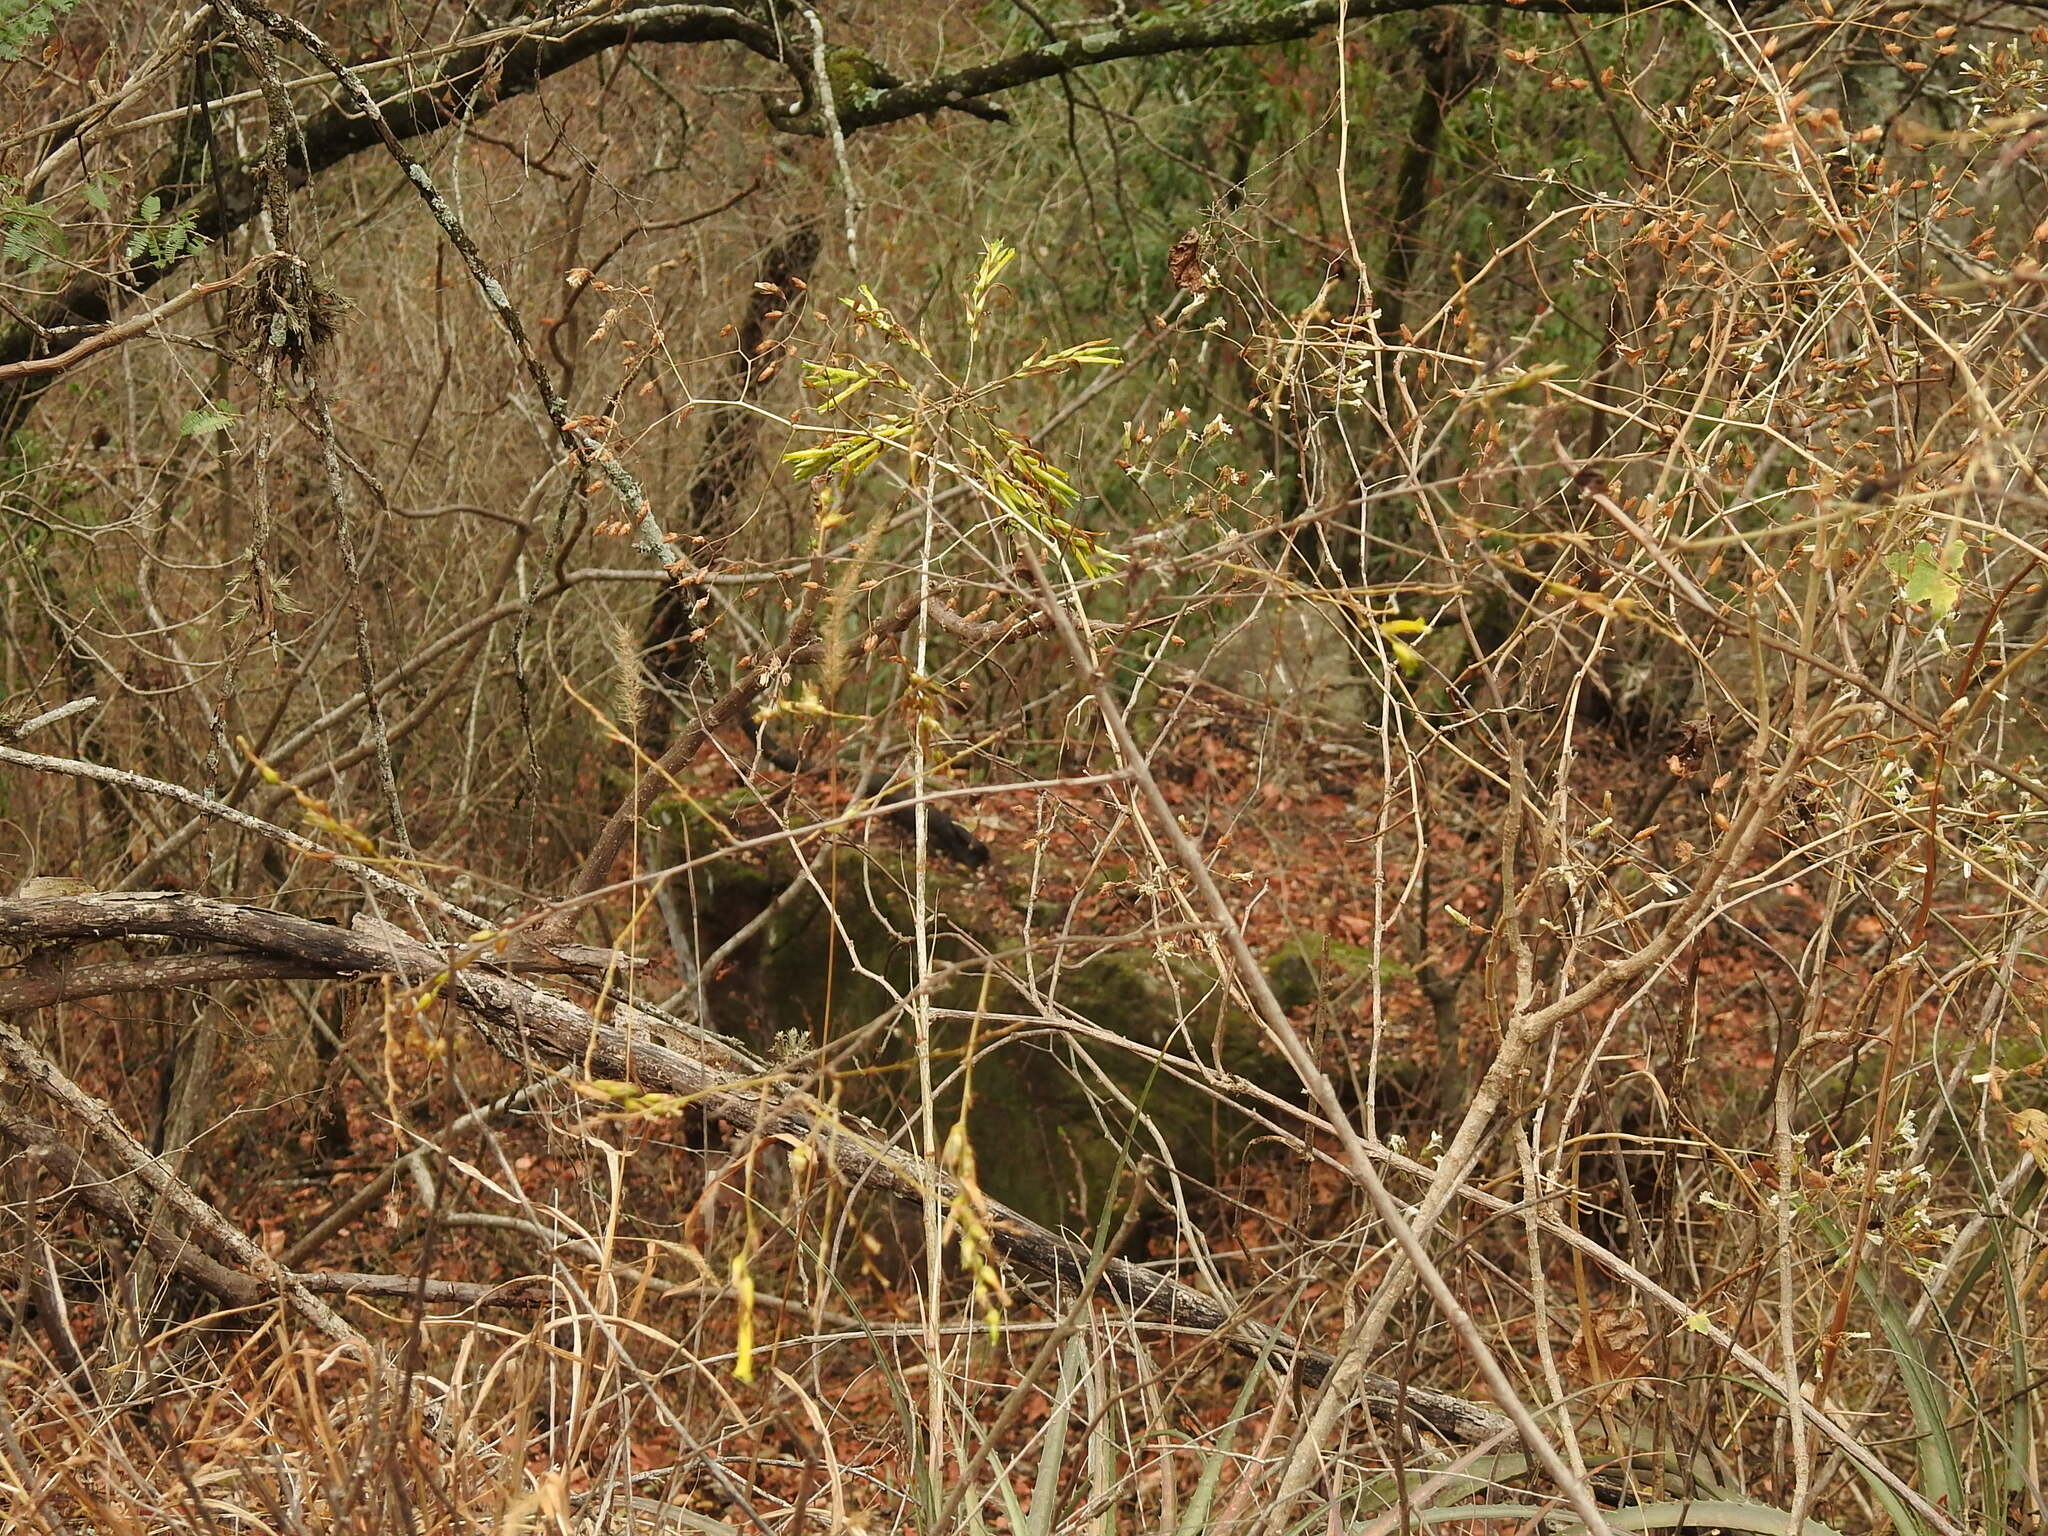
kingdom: Plantae
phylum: Tracheophyta
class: Liliopsida
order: Poales
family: Bromeliaceae
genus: Deuterocohnia
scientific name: Deuterocohnia longipetala
